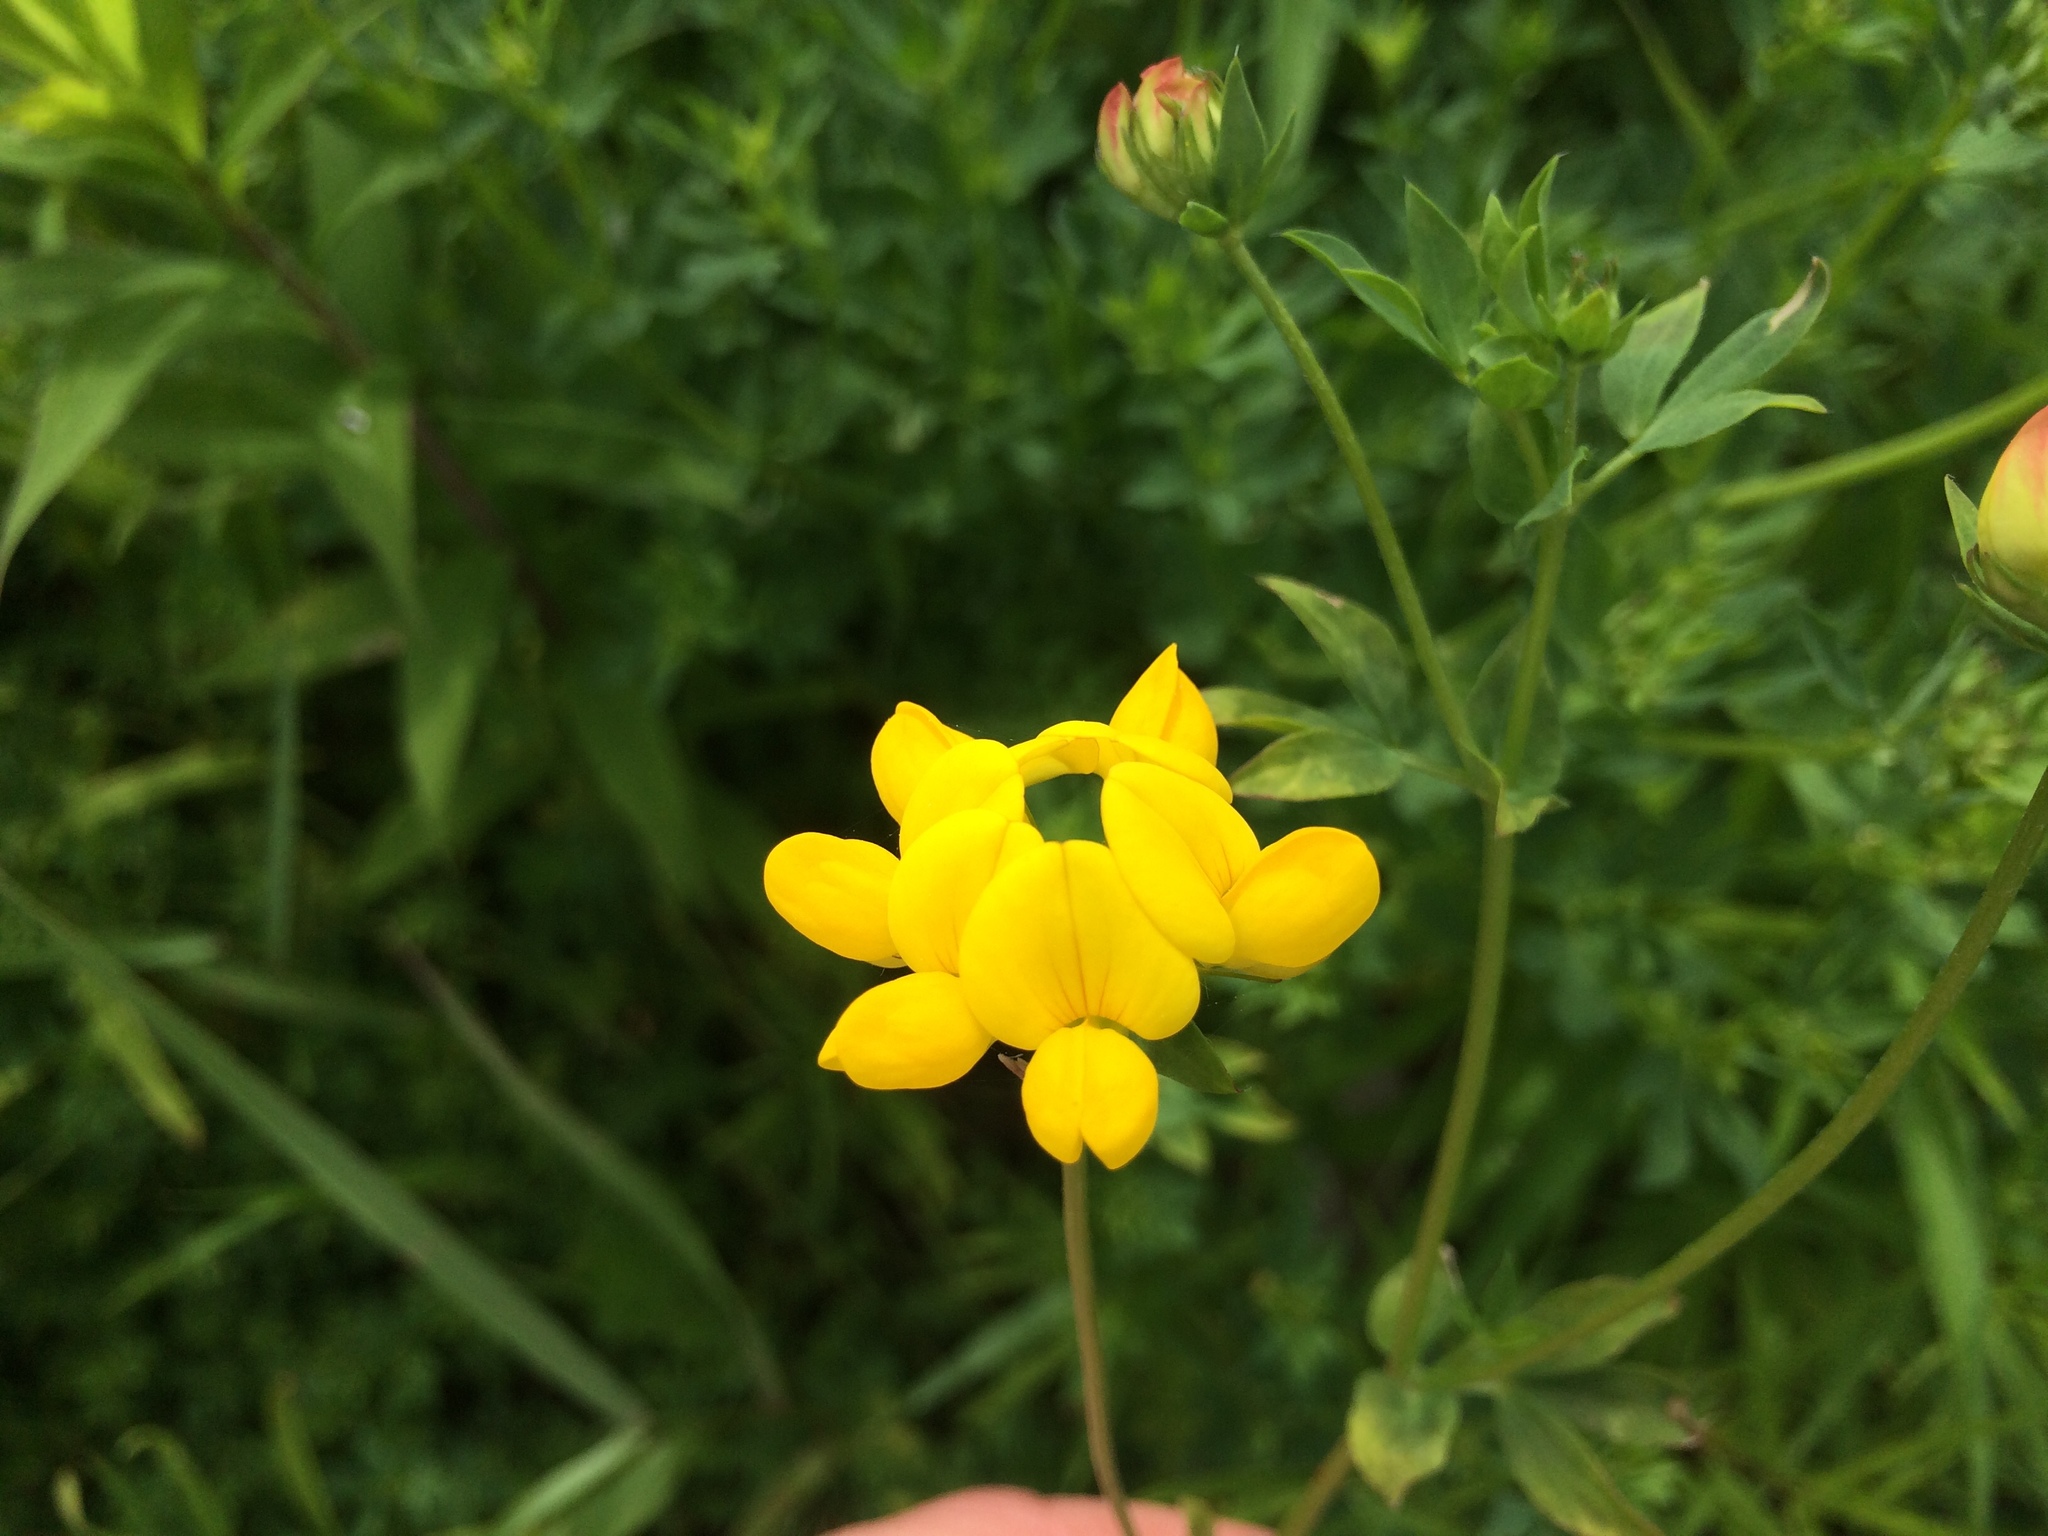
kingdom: Plantae
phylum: Tracheophyta
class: Magnoliopsida
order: Fabales
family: Fabaceae
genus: Lotus
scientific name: Lotus corniculatus
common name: Common bird's-foot-trefoil
